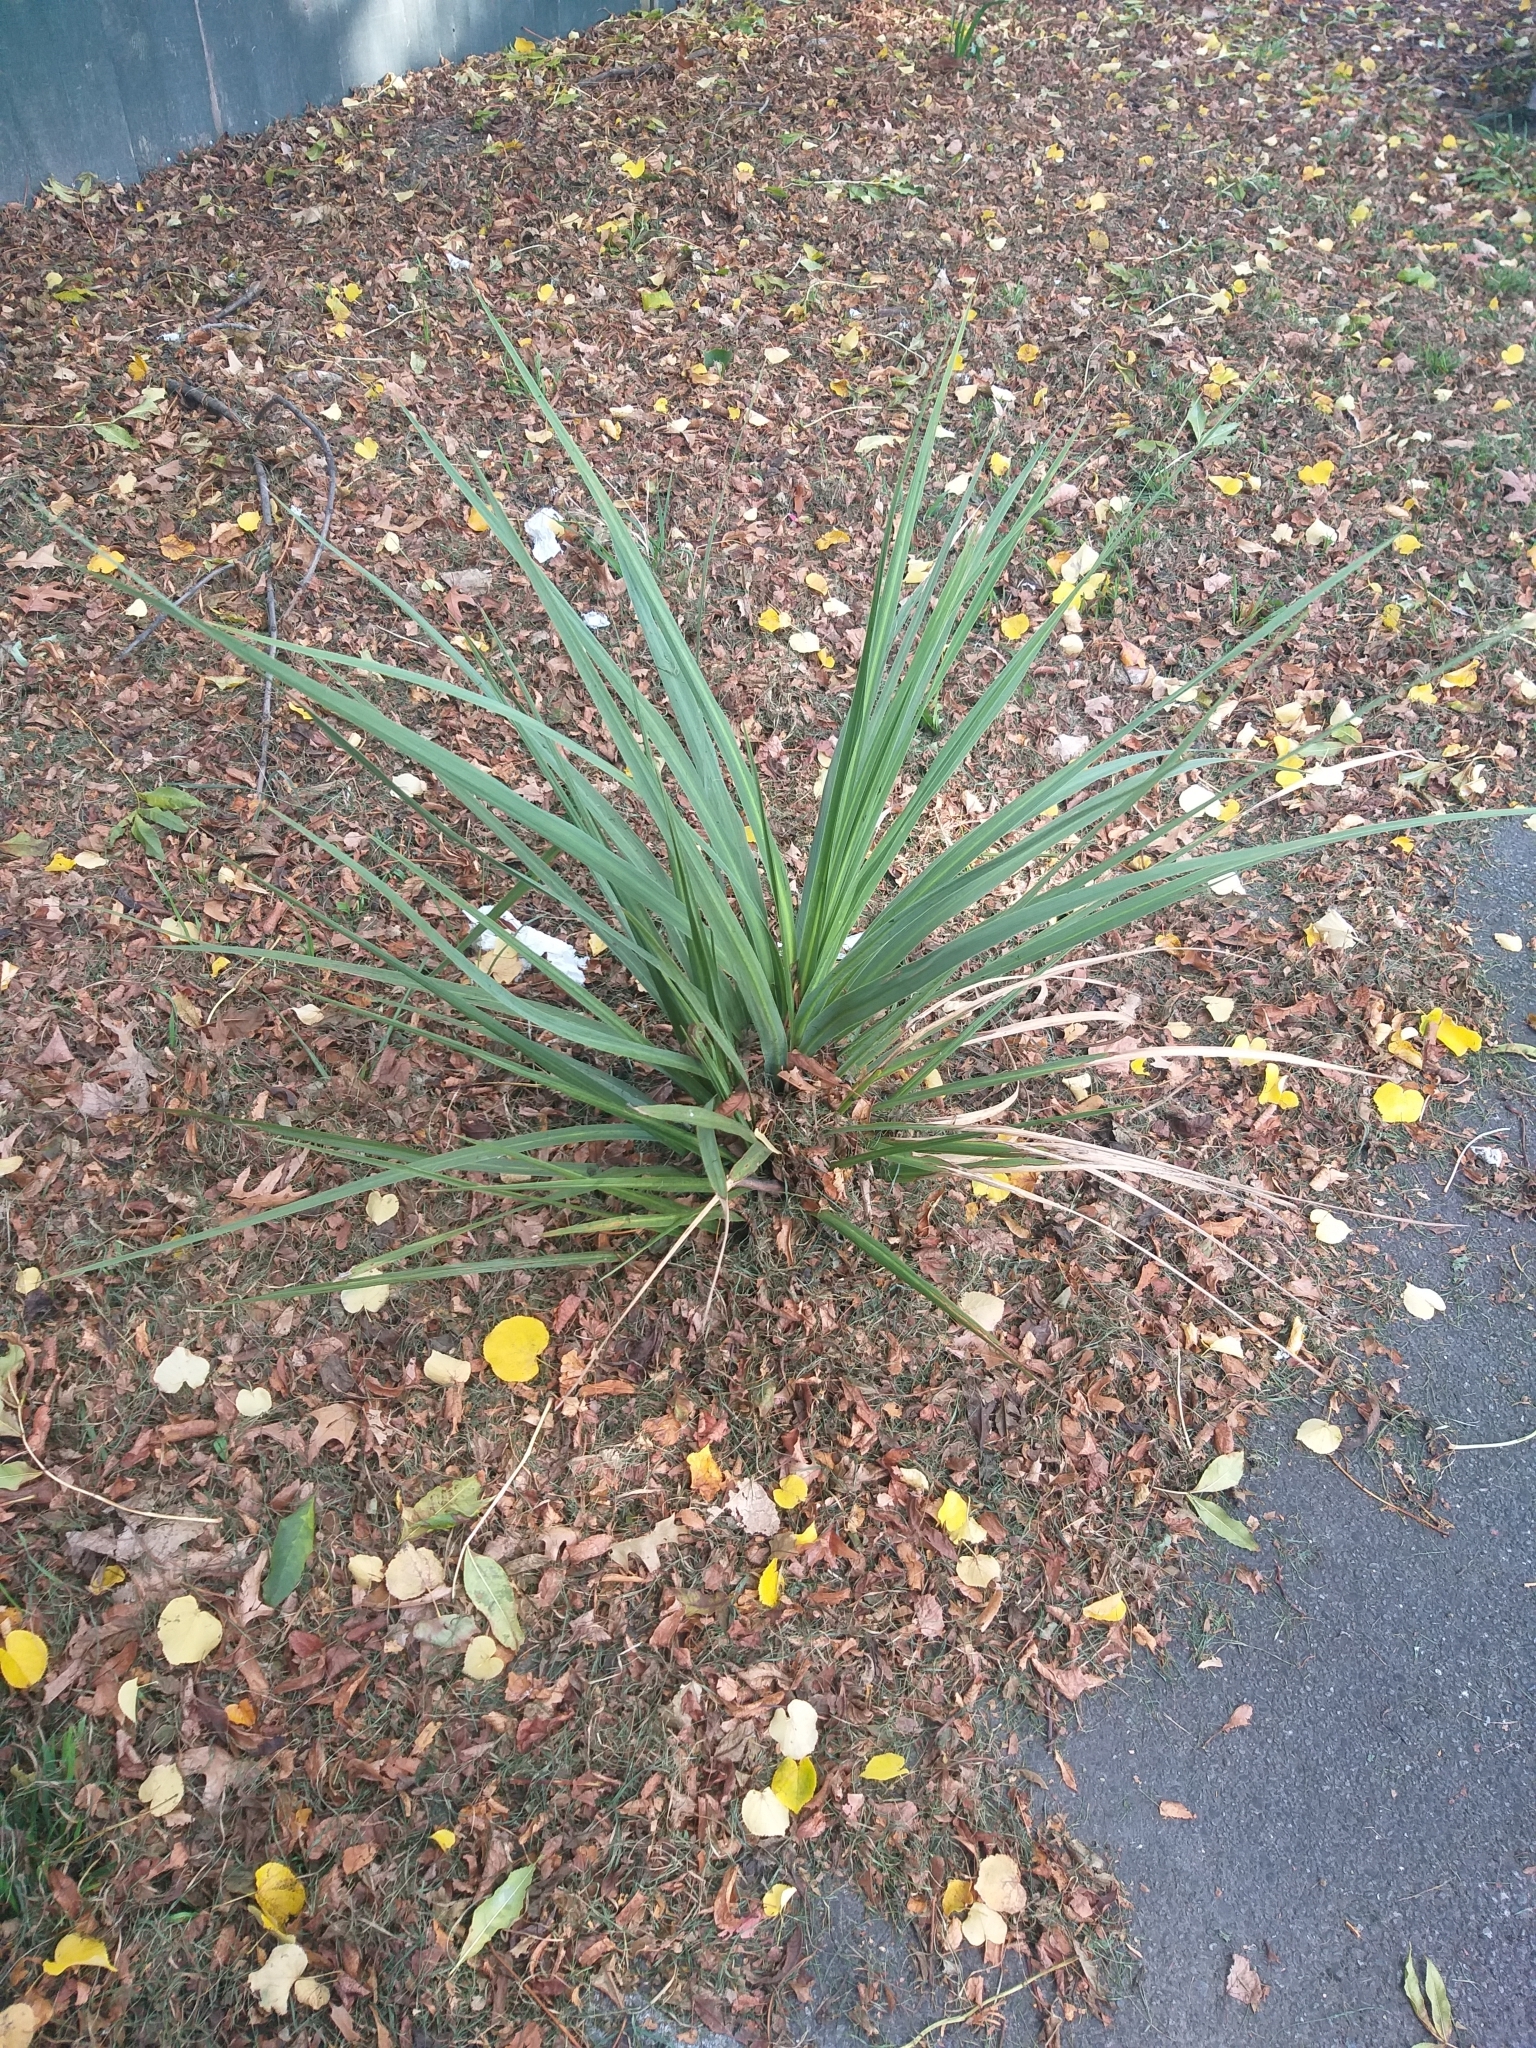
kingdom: Plantae
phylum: Tracheophyta
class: Liliopsida
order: Asparagales
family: Asparagaceae
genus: Cordyline
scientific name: Cordyline australis
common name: Cabbage-palm
